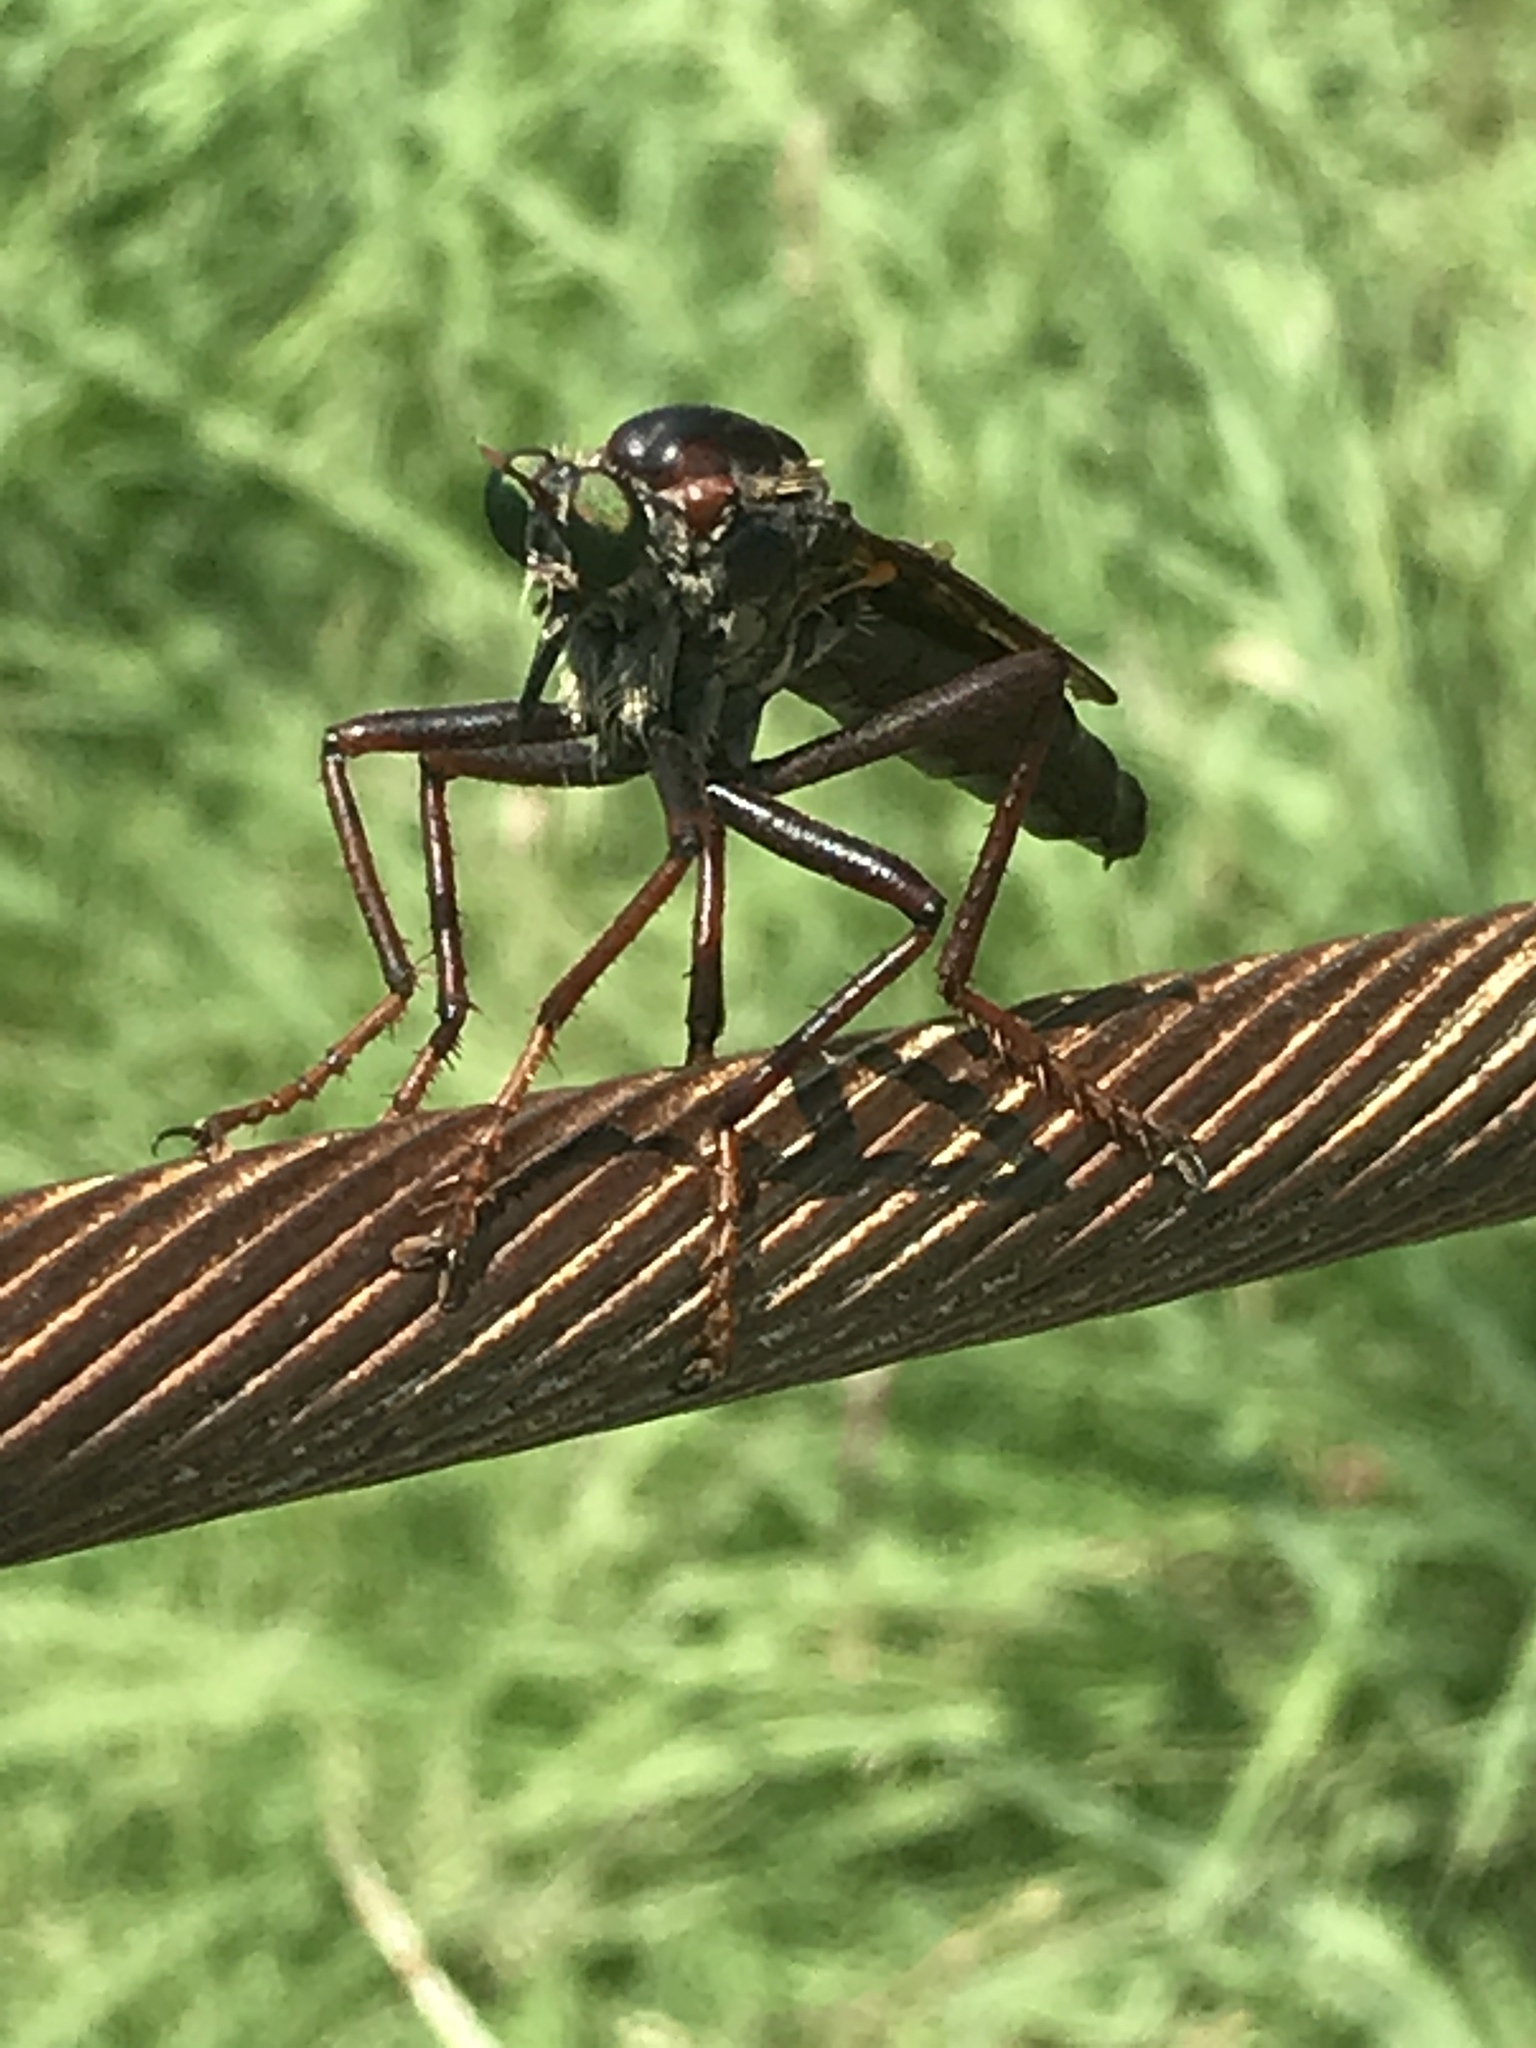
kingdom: Animalia
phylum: Arthropoda
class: Insecta
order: Diptera
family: Asilidae
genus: Microstylum
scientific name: Microstylum morosum
